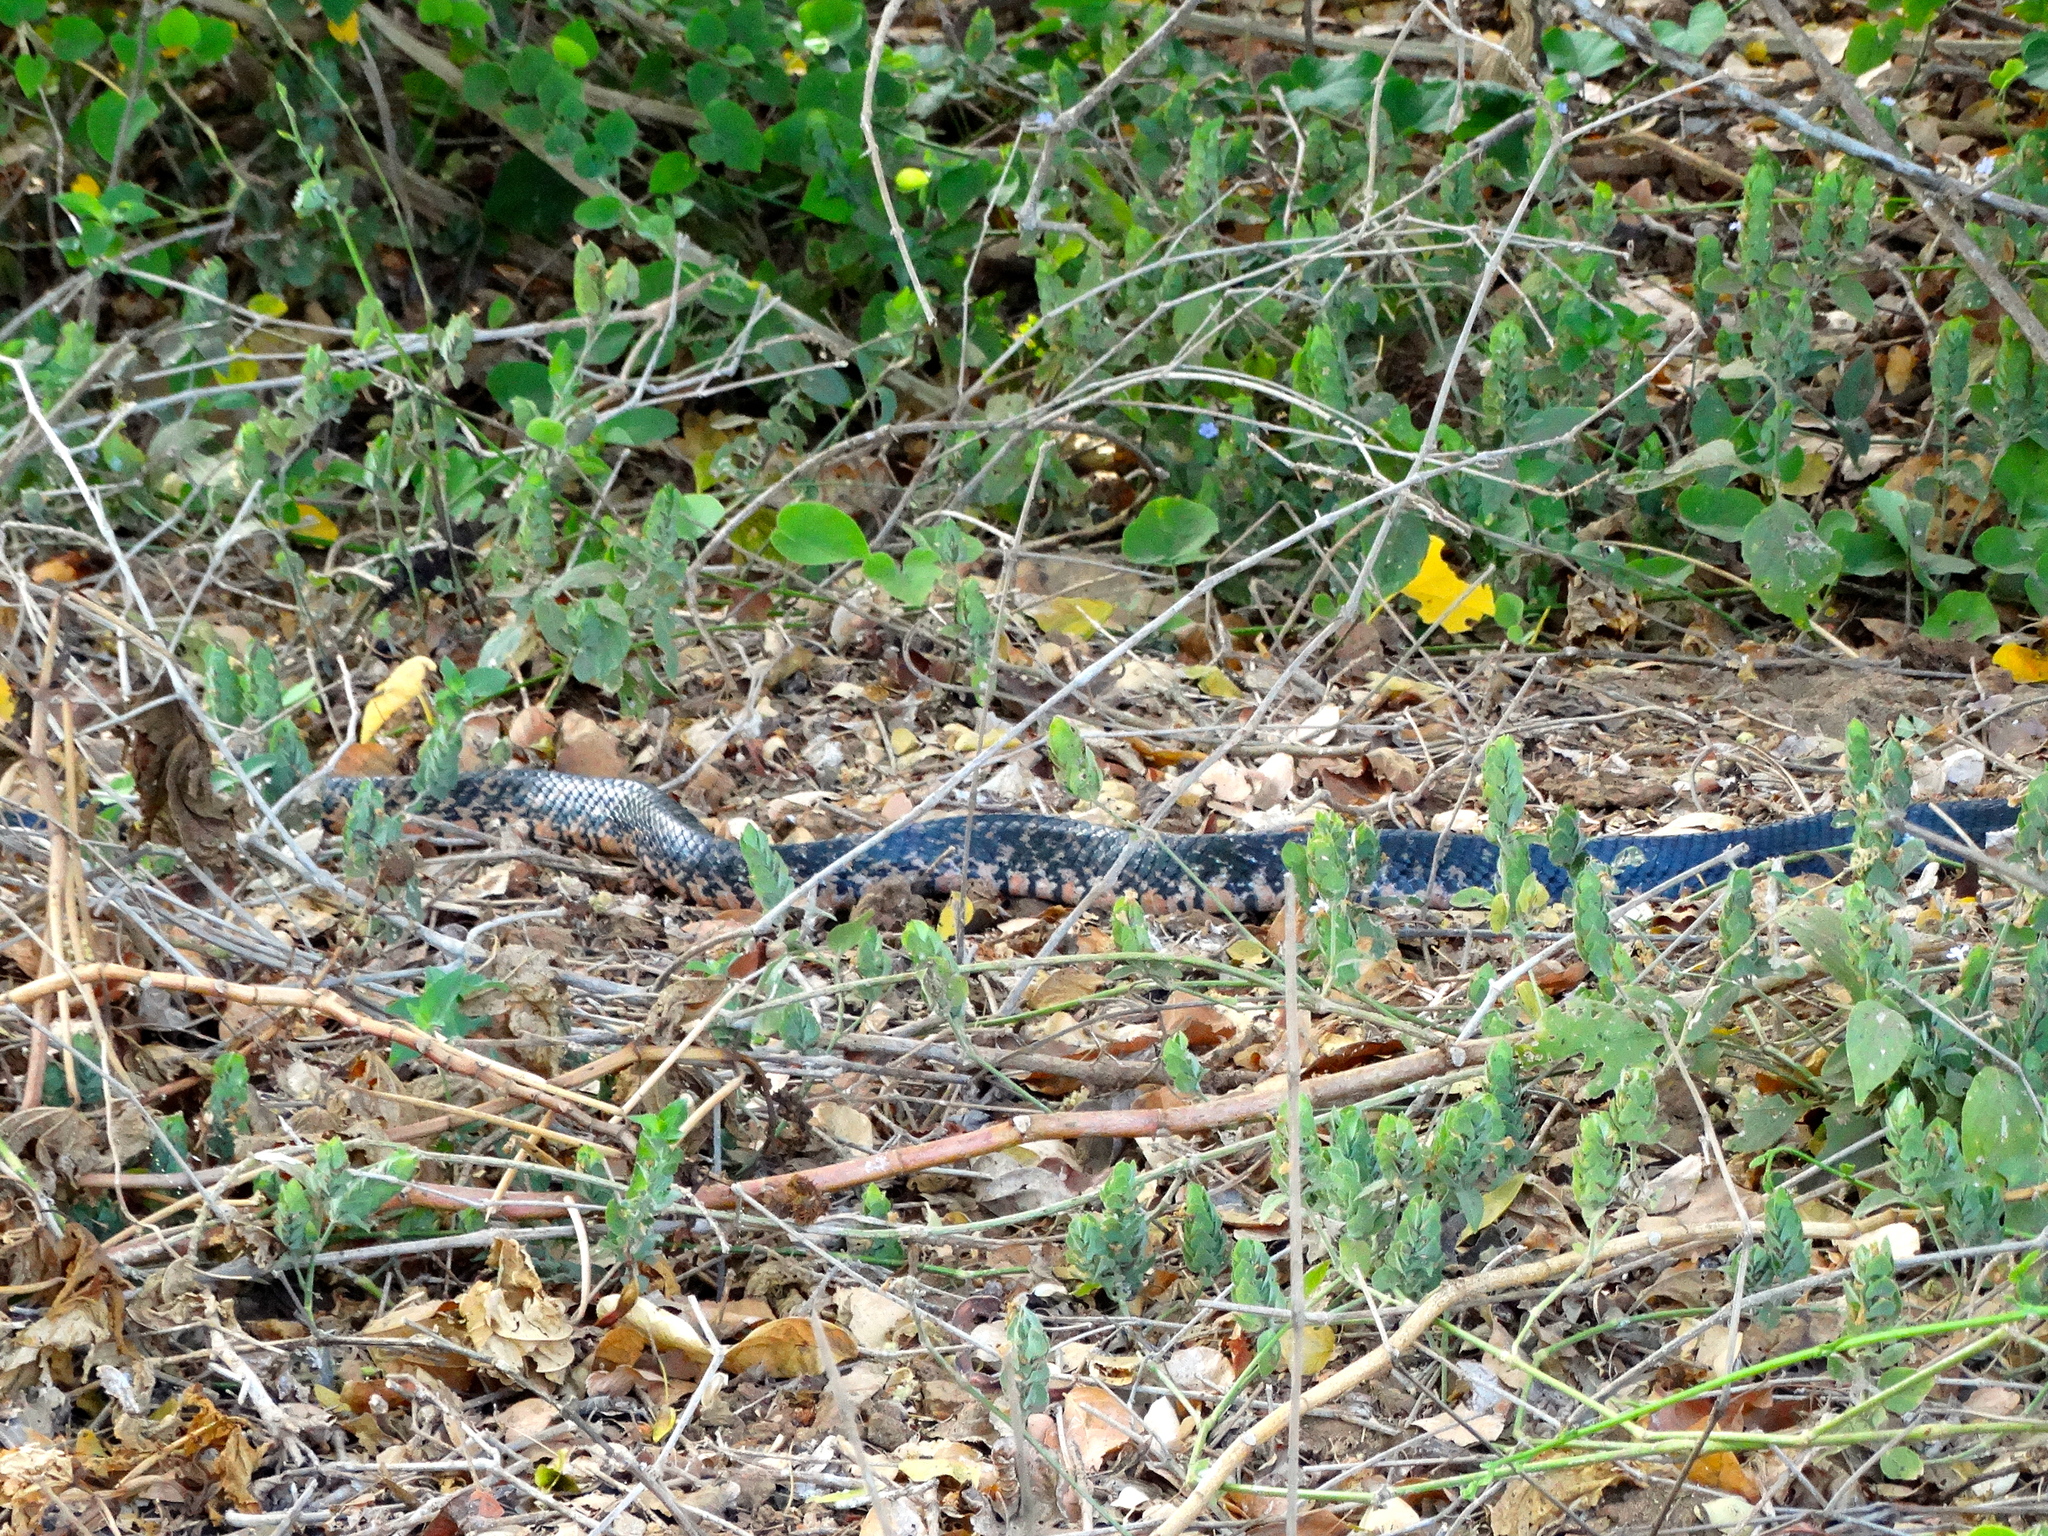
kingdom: Animalia
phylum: Chordata
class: Squamata
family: Colubridae
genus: Drymarchon
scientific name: Drymarchon melanurus
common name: Central american indigo snake
